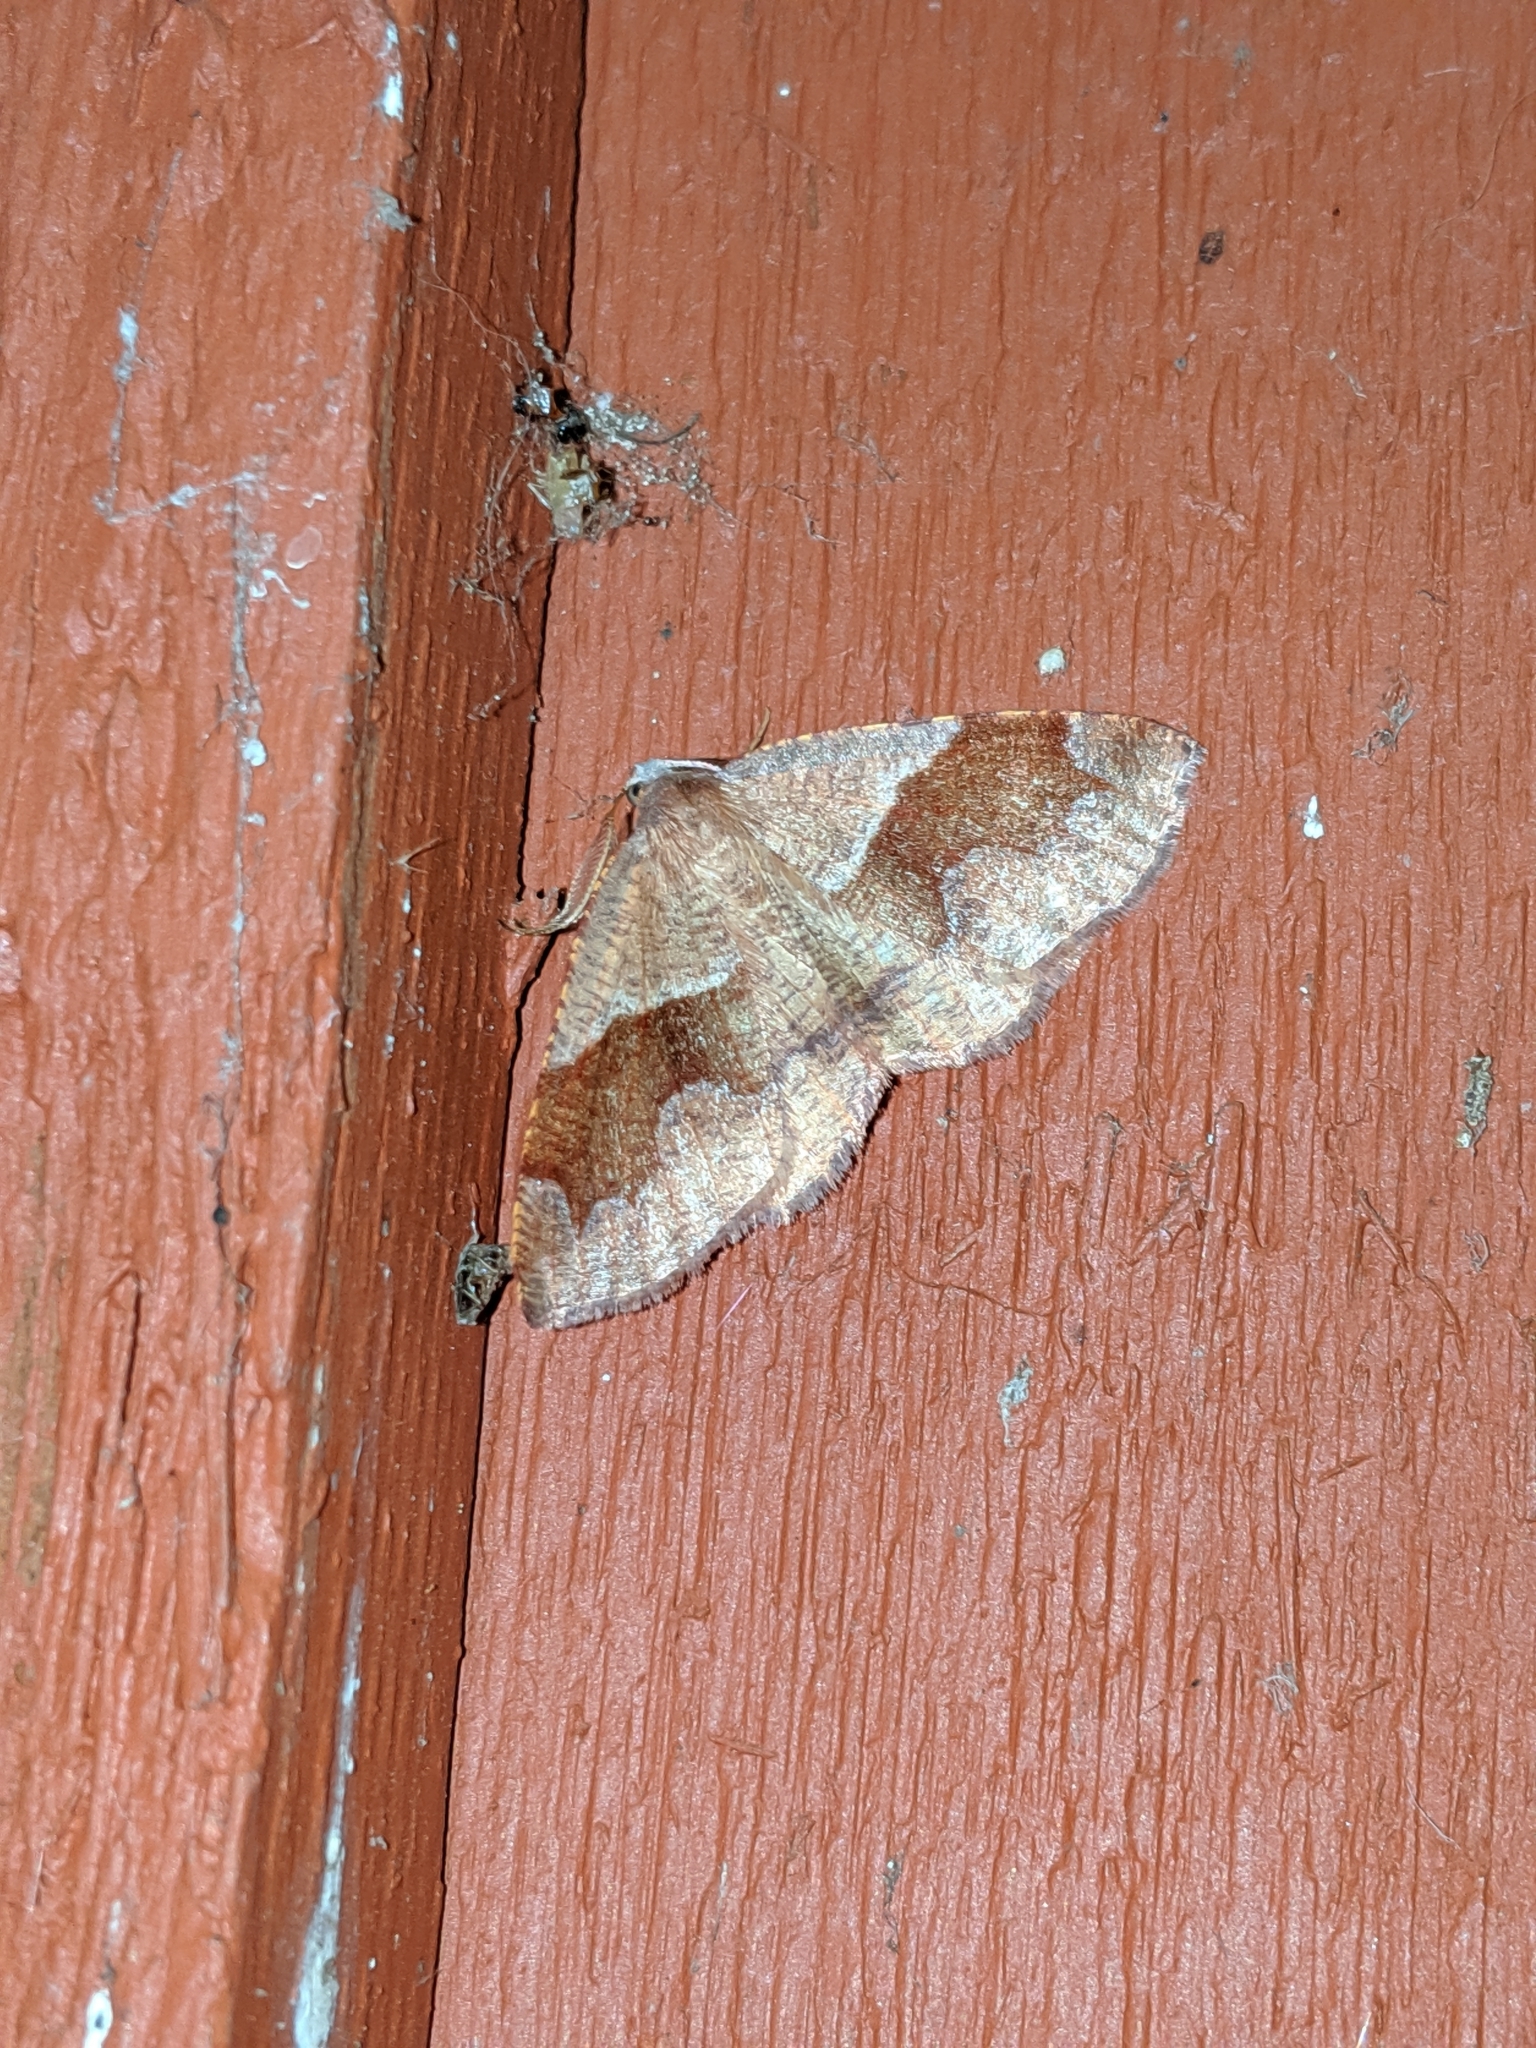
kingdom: Animalia
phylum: Arthropoda
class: Insecta
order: Lepidoptera
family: Geometridae
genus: Plagodis
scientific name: Plagodis pulveraria
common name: Barred umber
